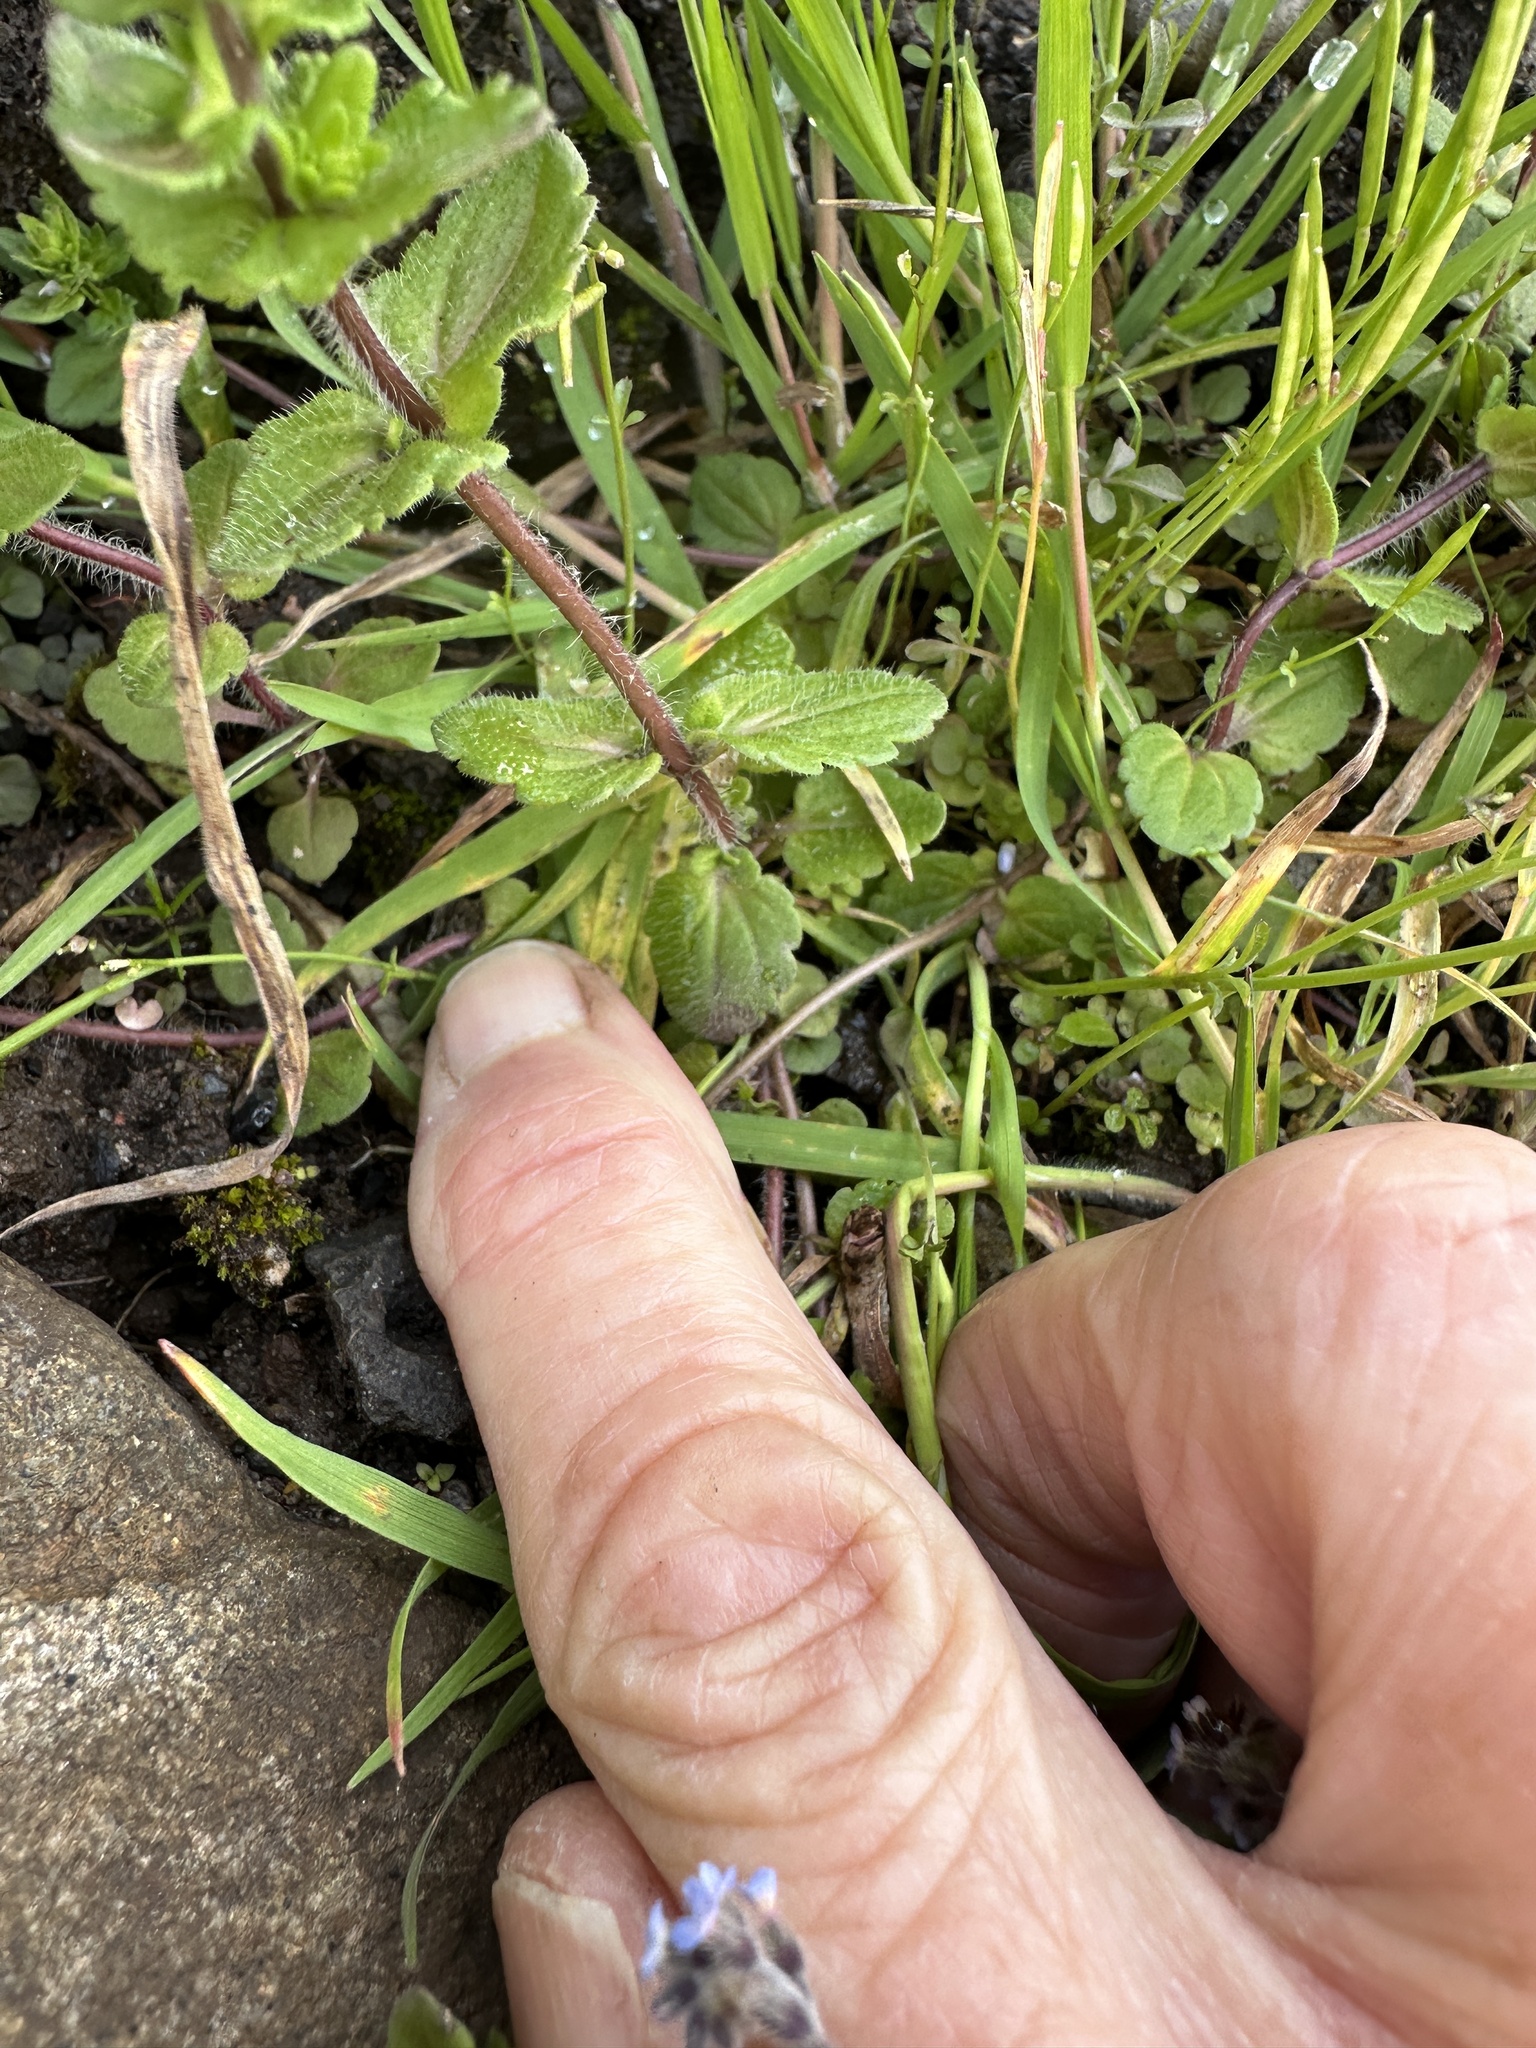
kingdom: Plantae
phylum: Tracheophyta
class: Magnoliopsida
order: Lamiales
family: Plantaginaceae
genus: Veronica
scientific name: Veronica arvensis
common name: Corn speedwell
